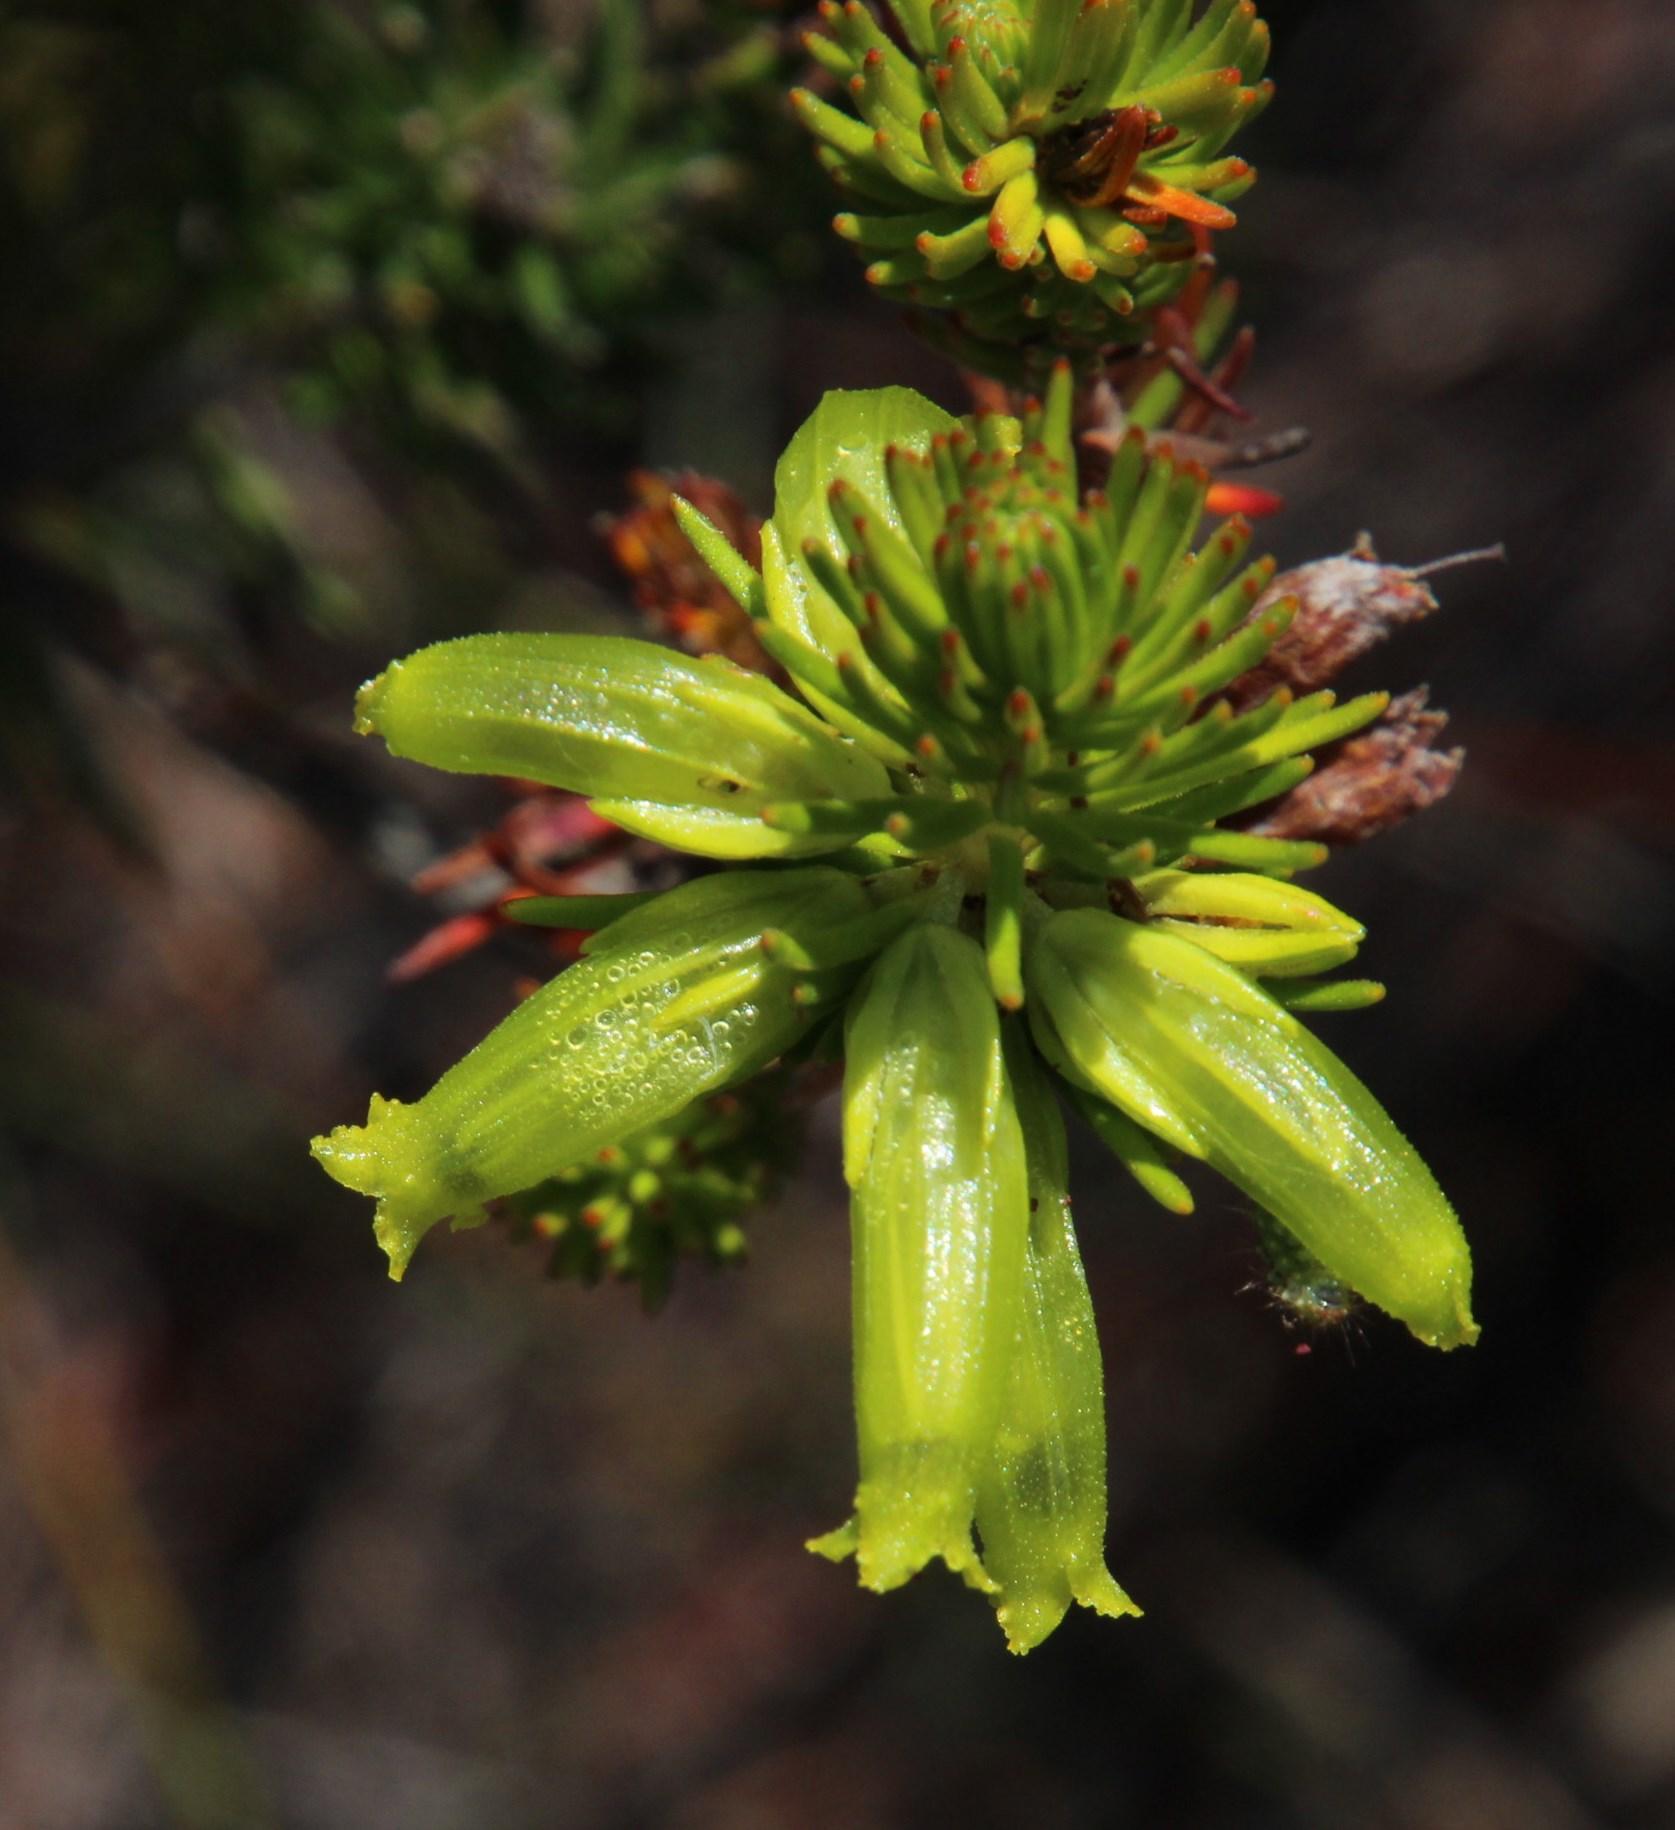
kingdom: Plantae
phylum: Tracheophyta
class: Magnoliopsida
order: Ericales
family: Ericaceae
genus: Erica
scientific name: Erica viscaria
